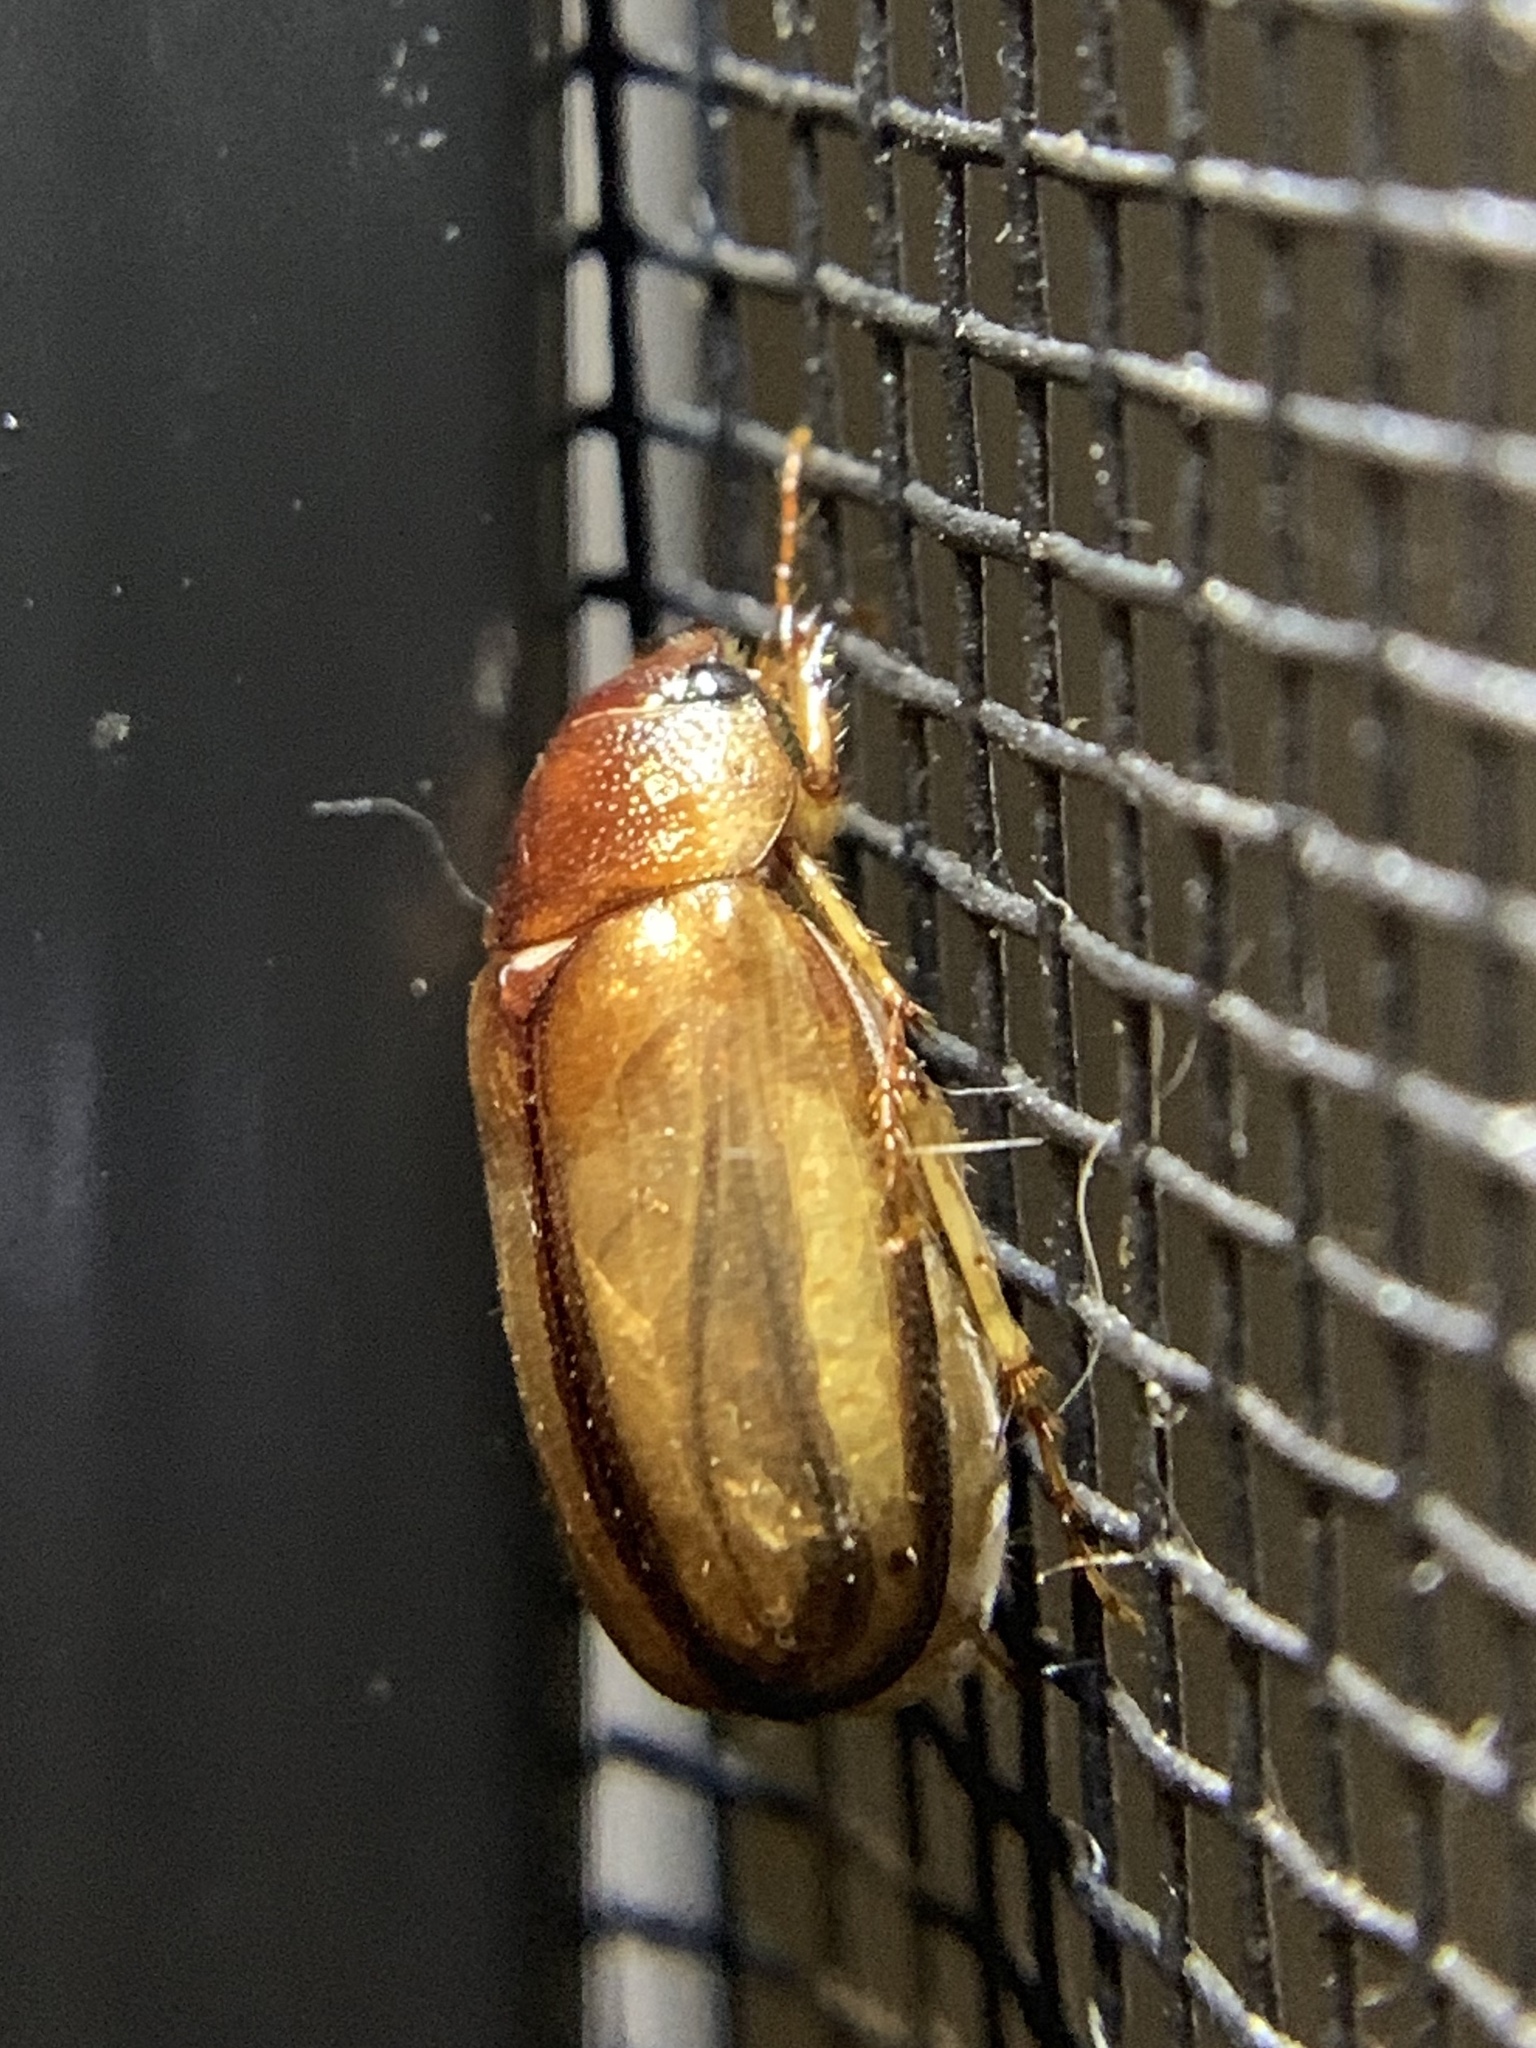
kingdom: Animalia
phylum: Arthropoda
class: Insecta
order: Coleoptera
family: Scarabaeidae
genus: Phyllophaga
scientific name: Phyllophaga bruneri
